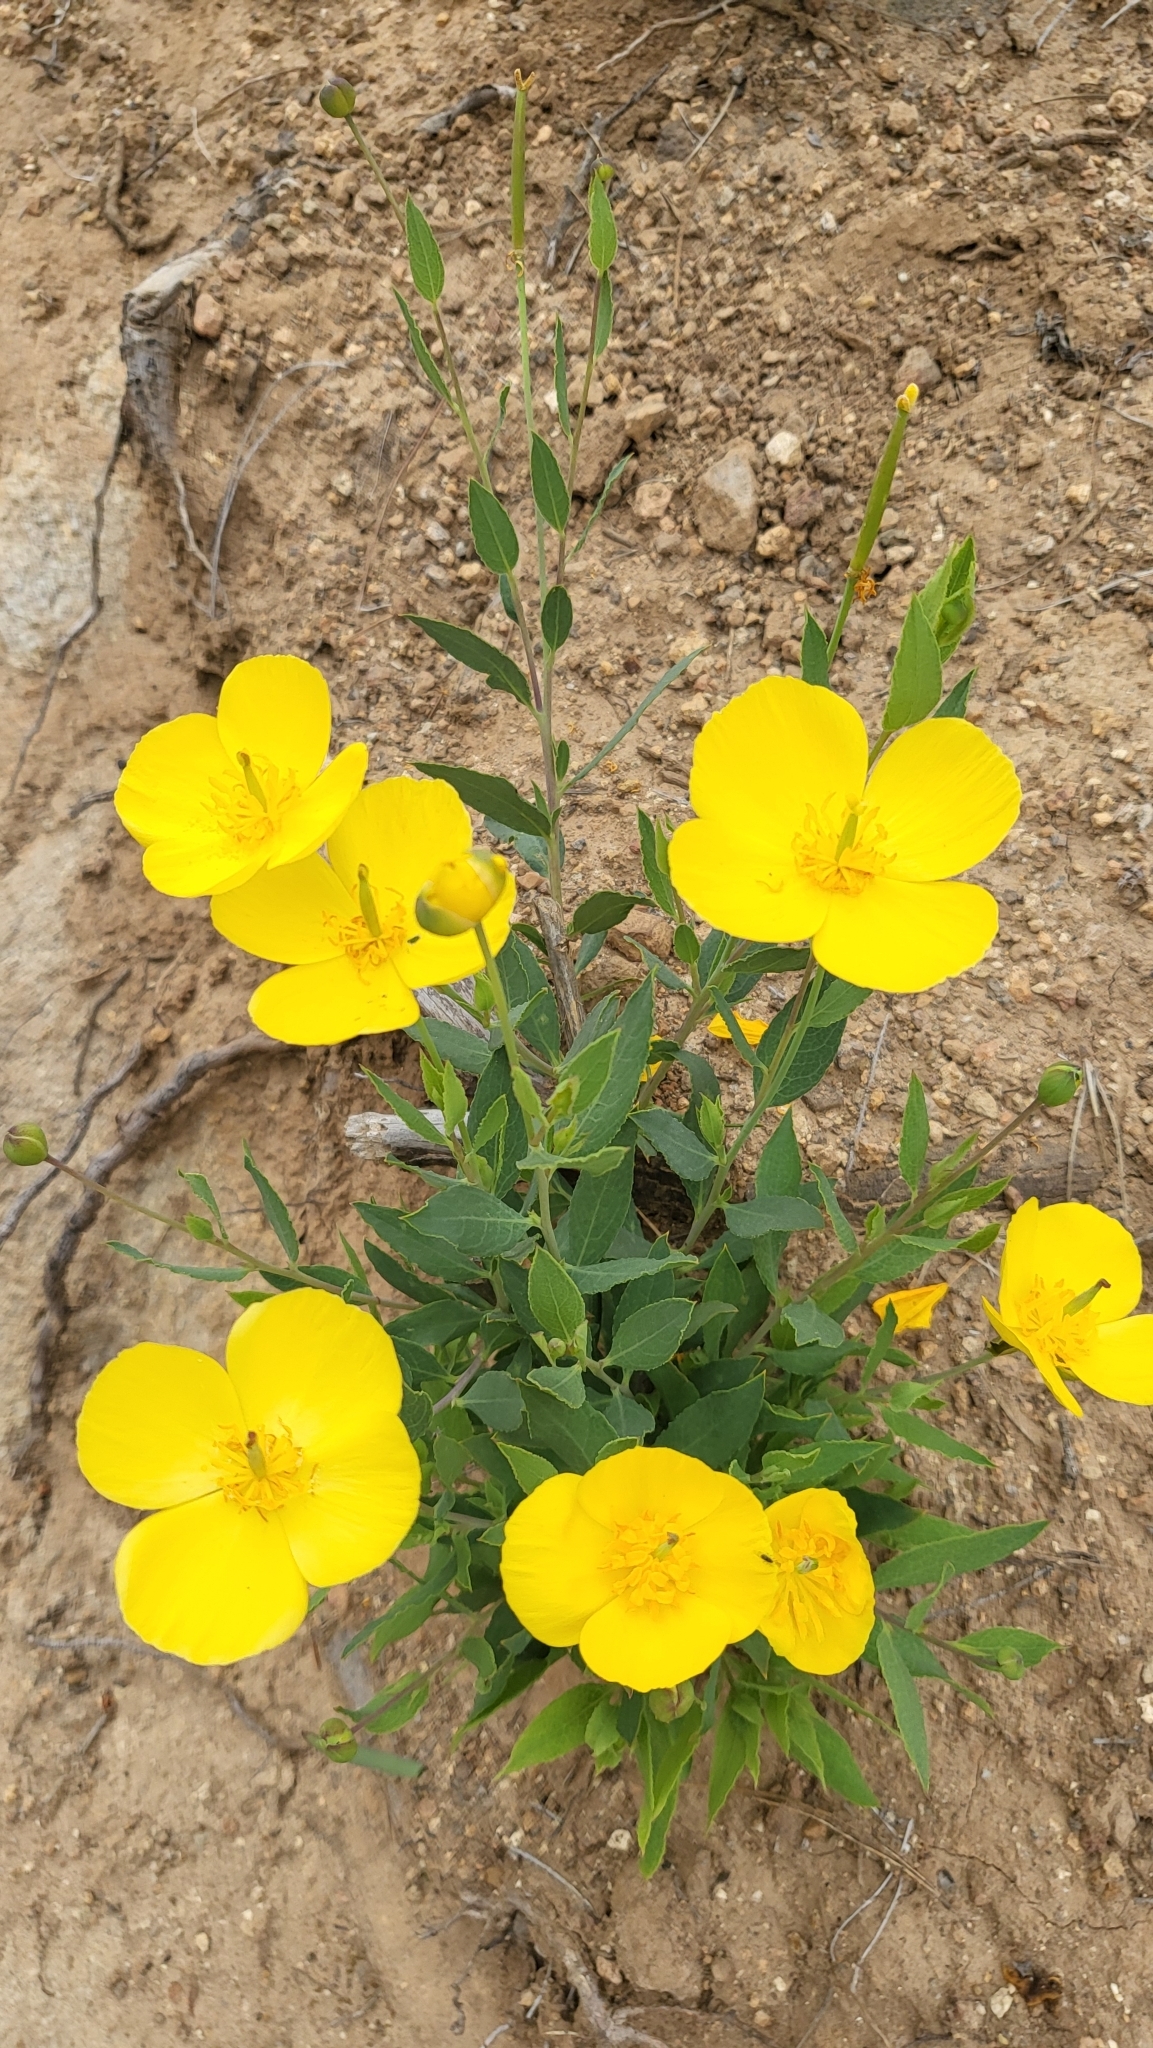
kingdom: Plantae
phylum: Tracheophyta
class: Magnoliopsida
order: Ranunculales
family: Papaveraceae
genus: Dendromecon
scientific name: Dendromecon rigida
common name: Tree poppy
